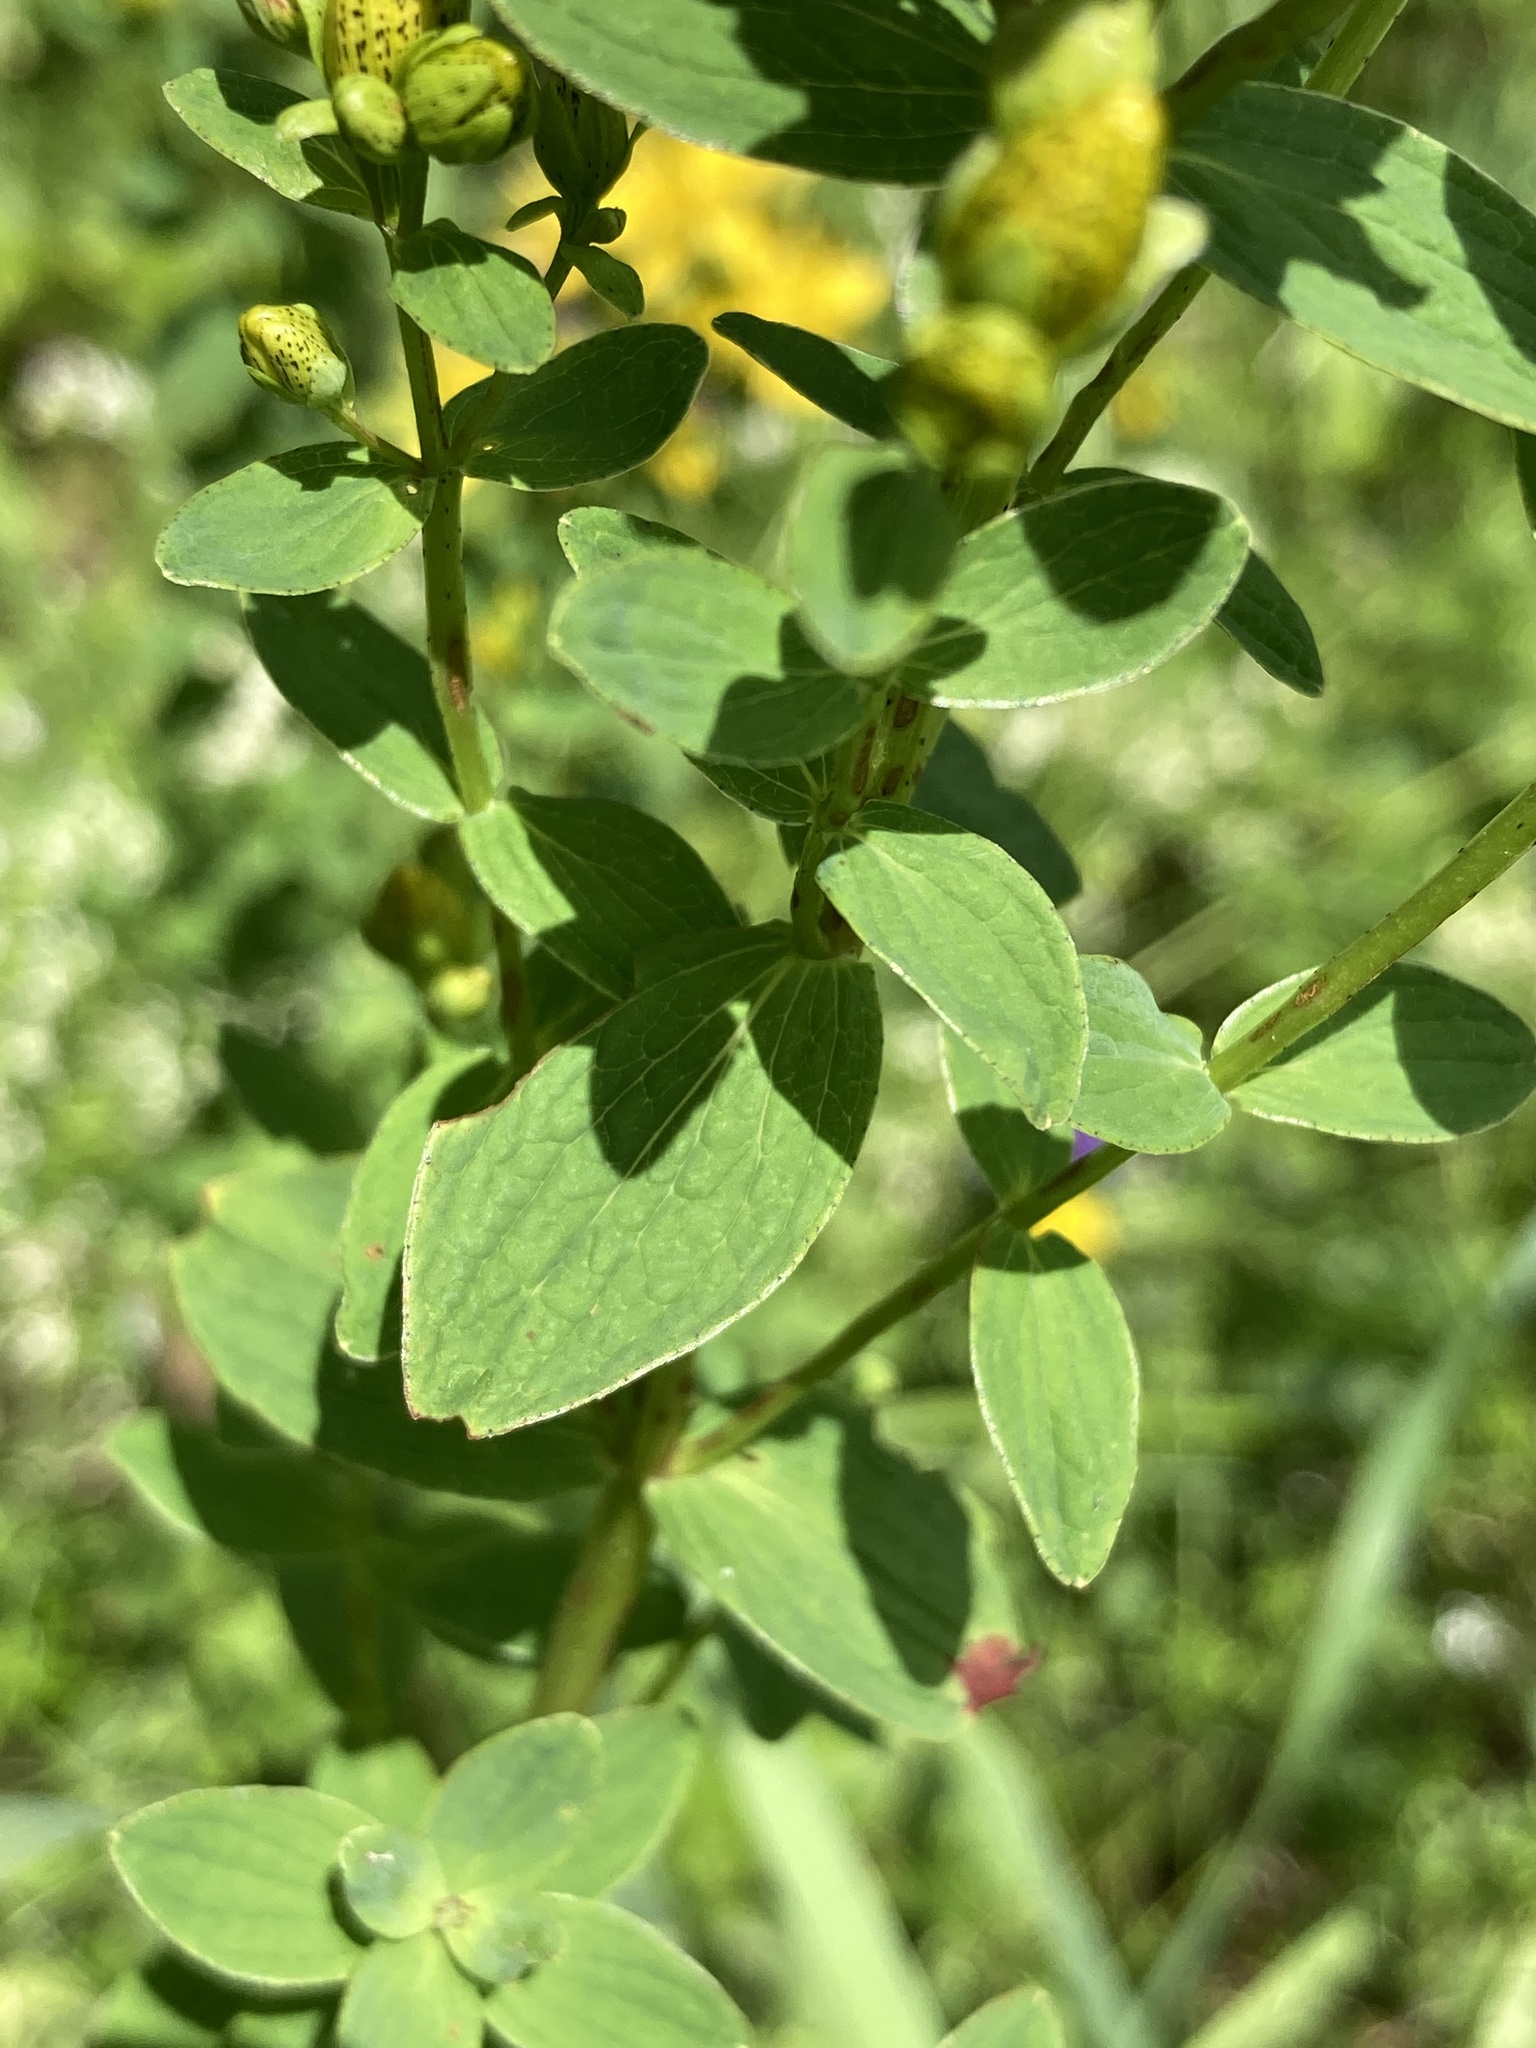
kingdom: Plantae
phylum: Tracheophyta
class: Magnoliopsida
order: Malpighiales
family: Hypericaceae
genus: Hypericum
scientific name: Hypericum maculatum
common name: Imperforate st. john's-wort
